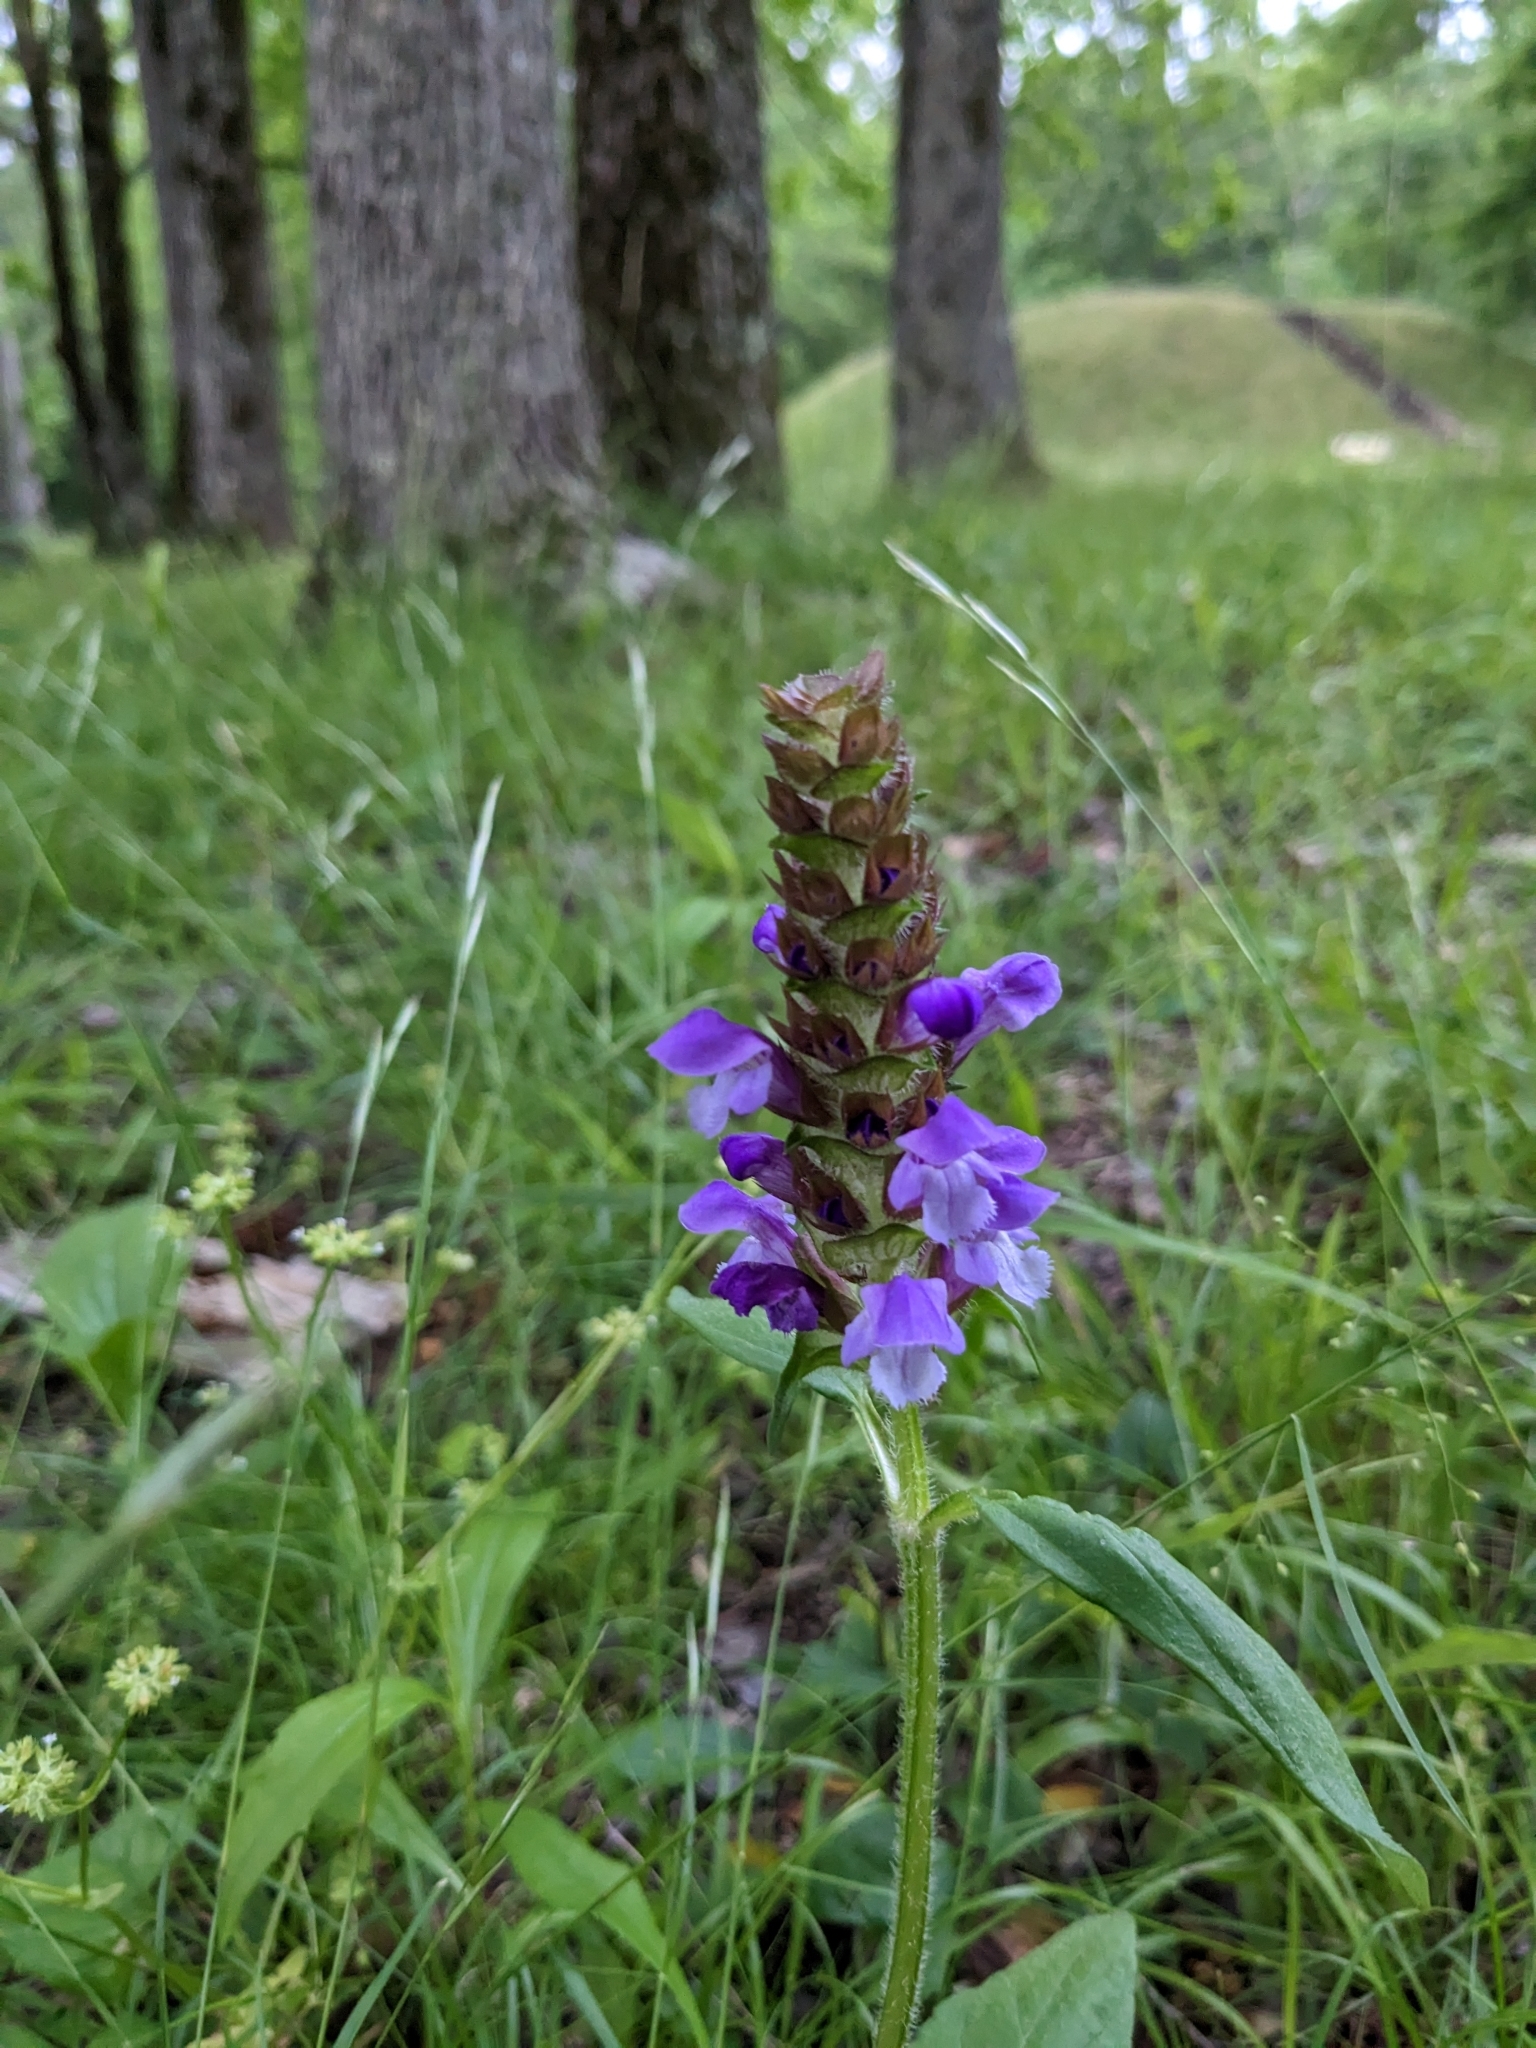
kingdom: Plantae
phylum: Tracheophyta
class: Magnoliopsida
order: Lamiales
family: Lamiaceae
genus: Prunella
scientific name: Prunella vulgaris
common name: Heal-all
